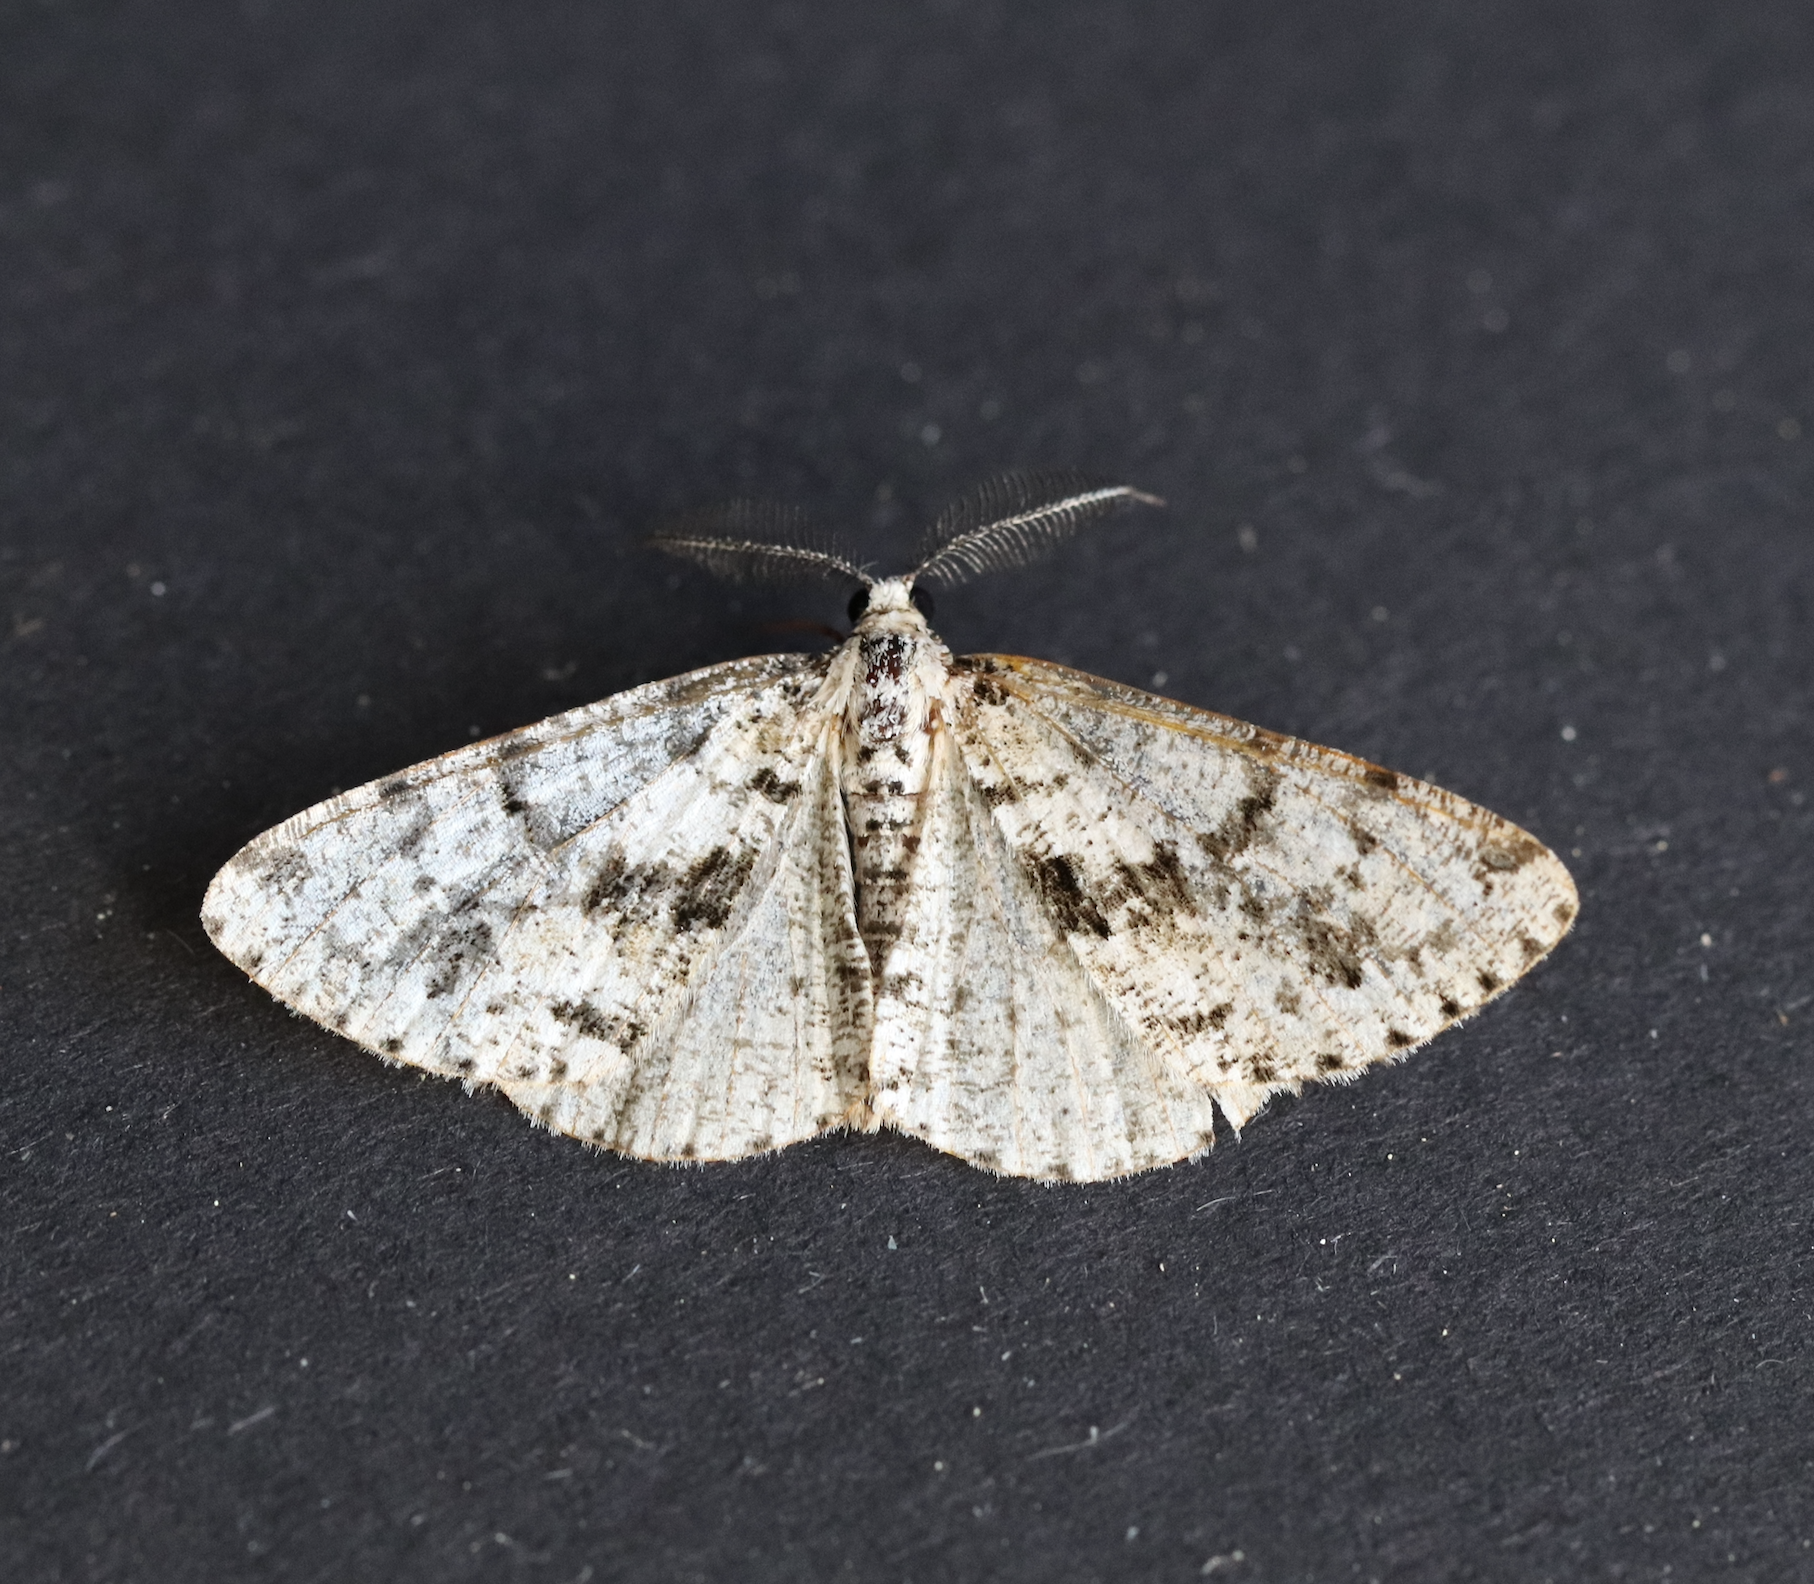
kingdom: Animalia
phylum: Arthropoda
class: Insecta
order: Lepidoptera
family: Geometridae
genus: Fagivorina
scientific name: Fagivorina arenaria
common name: Speckled beauty
